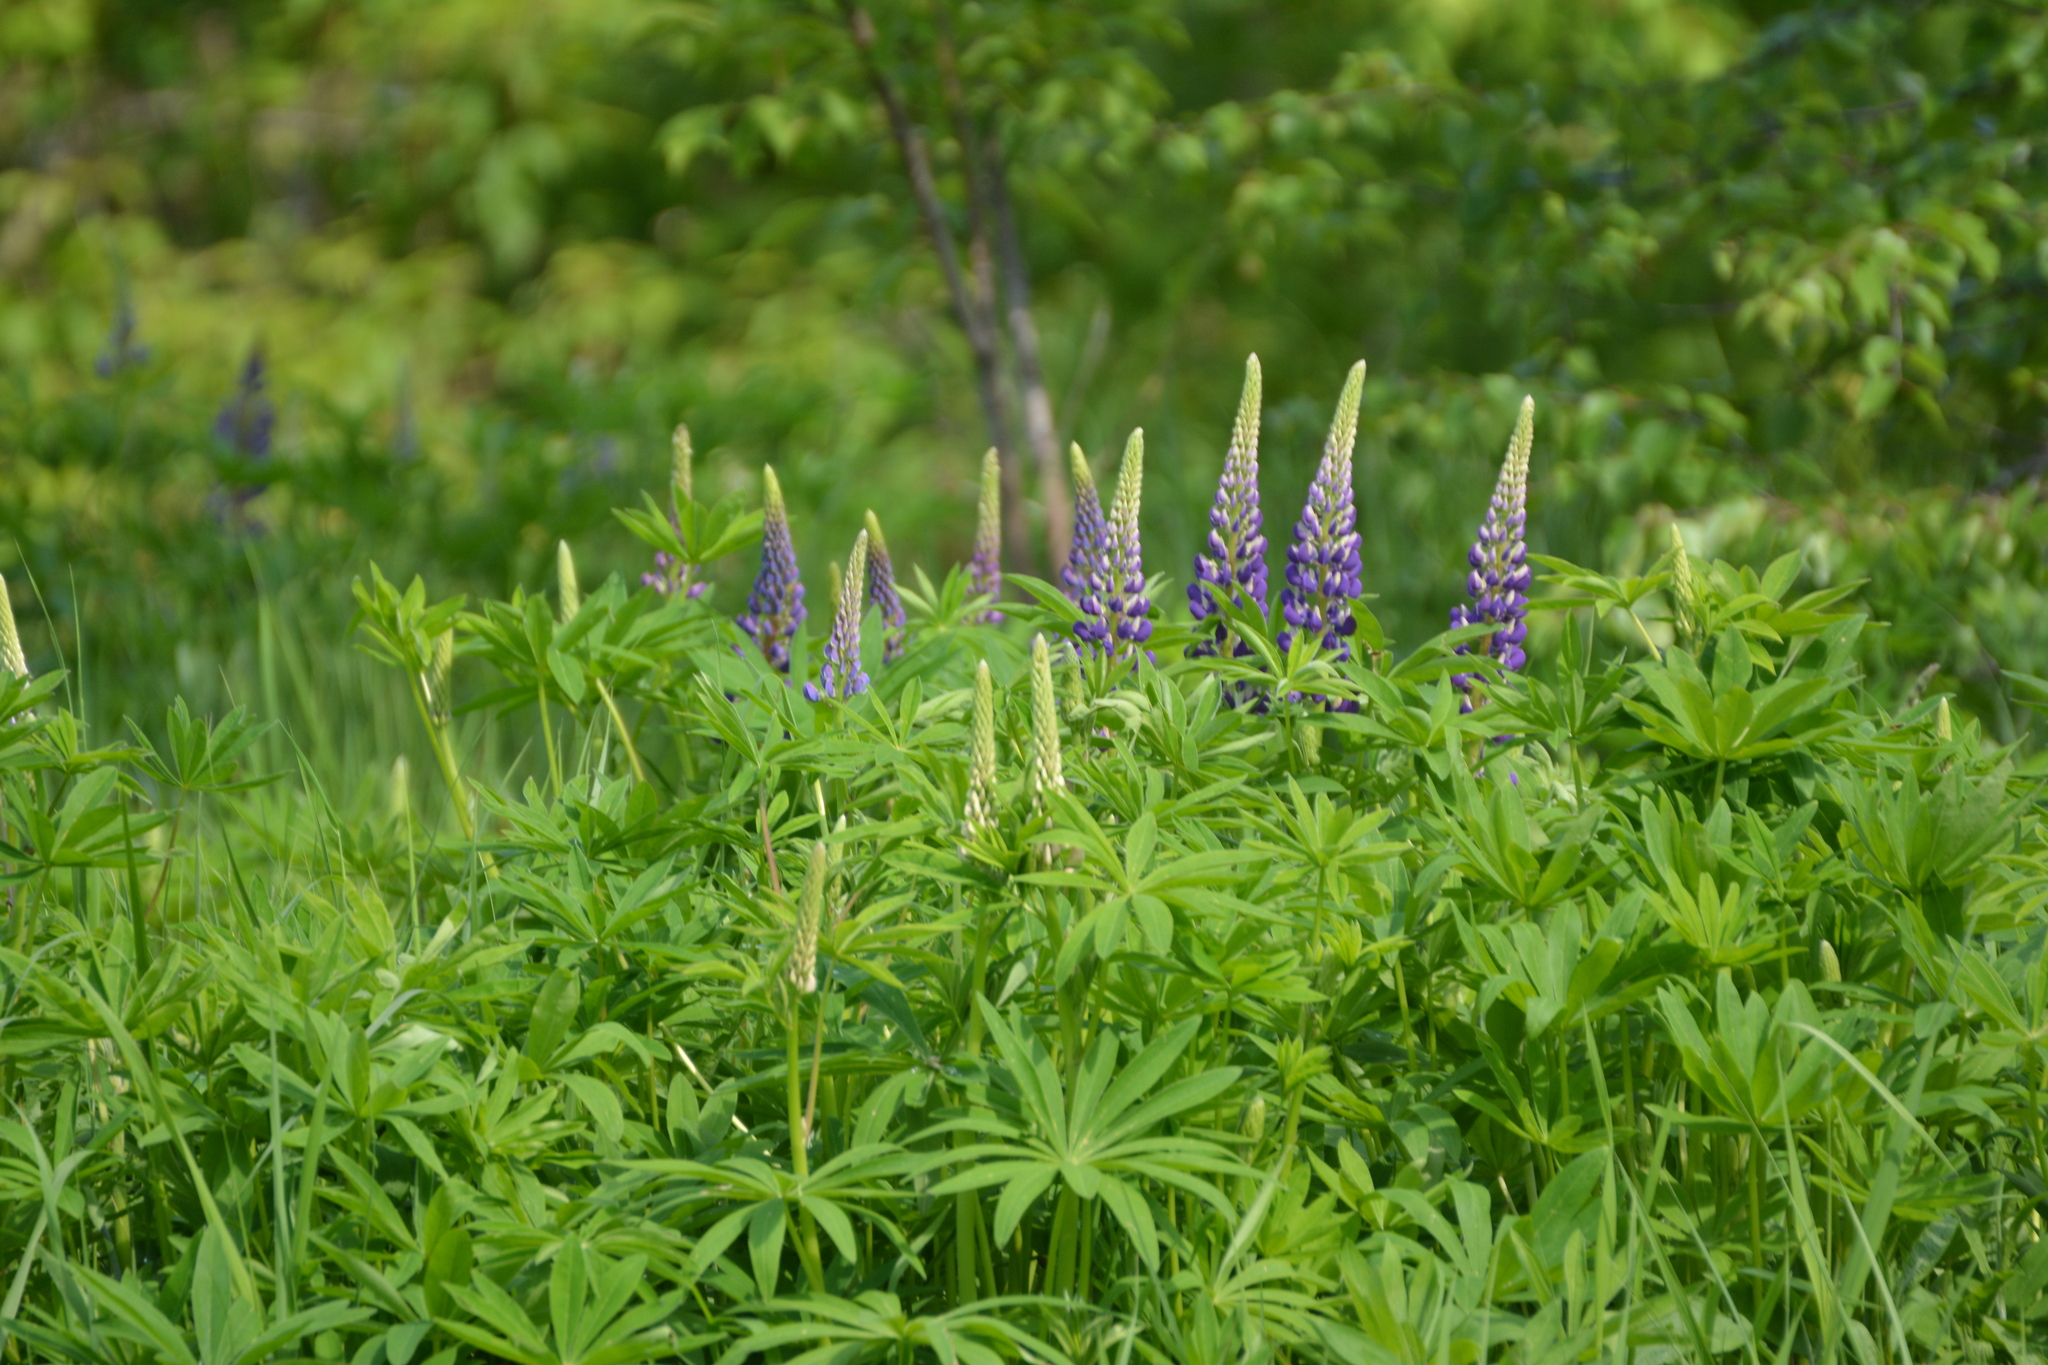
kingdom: Plantae
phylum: Tracheophyta
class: Magnoliopsida
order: Fabales
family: Fabaceae
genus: Lupinus
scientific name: Lupinus polyphyllus
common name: Garden lupin
